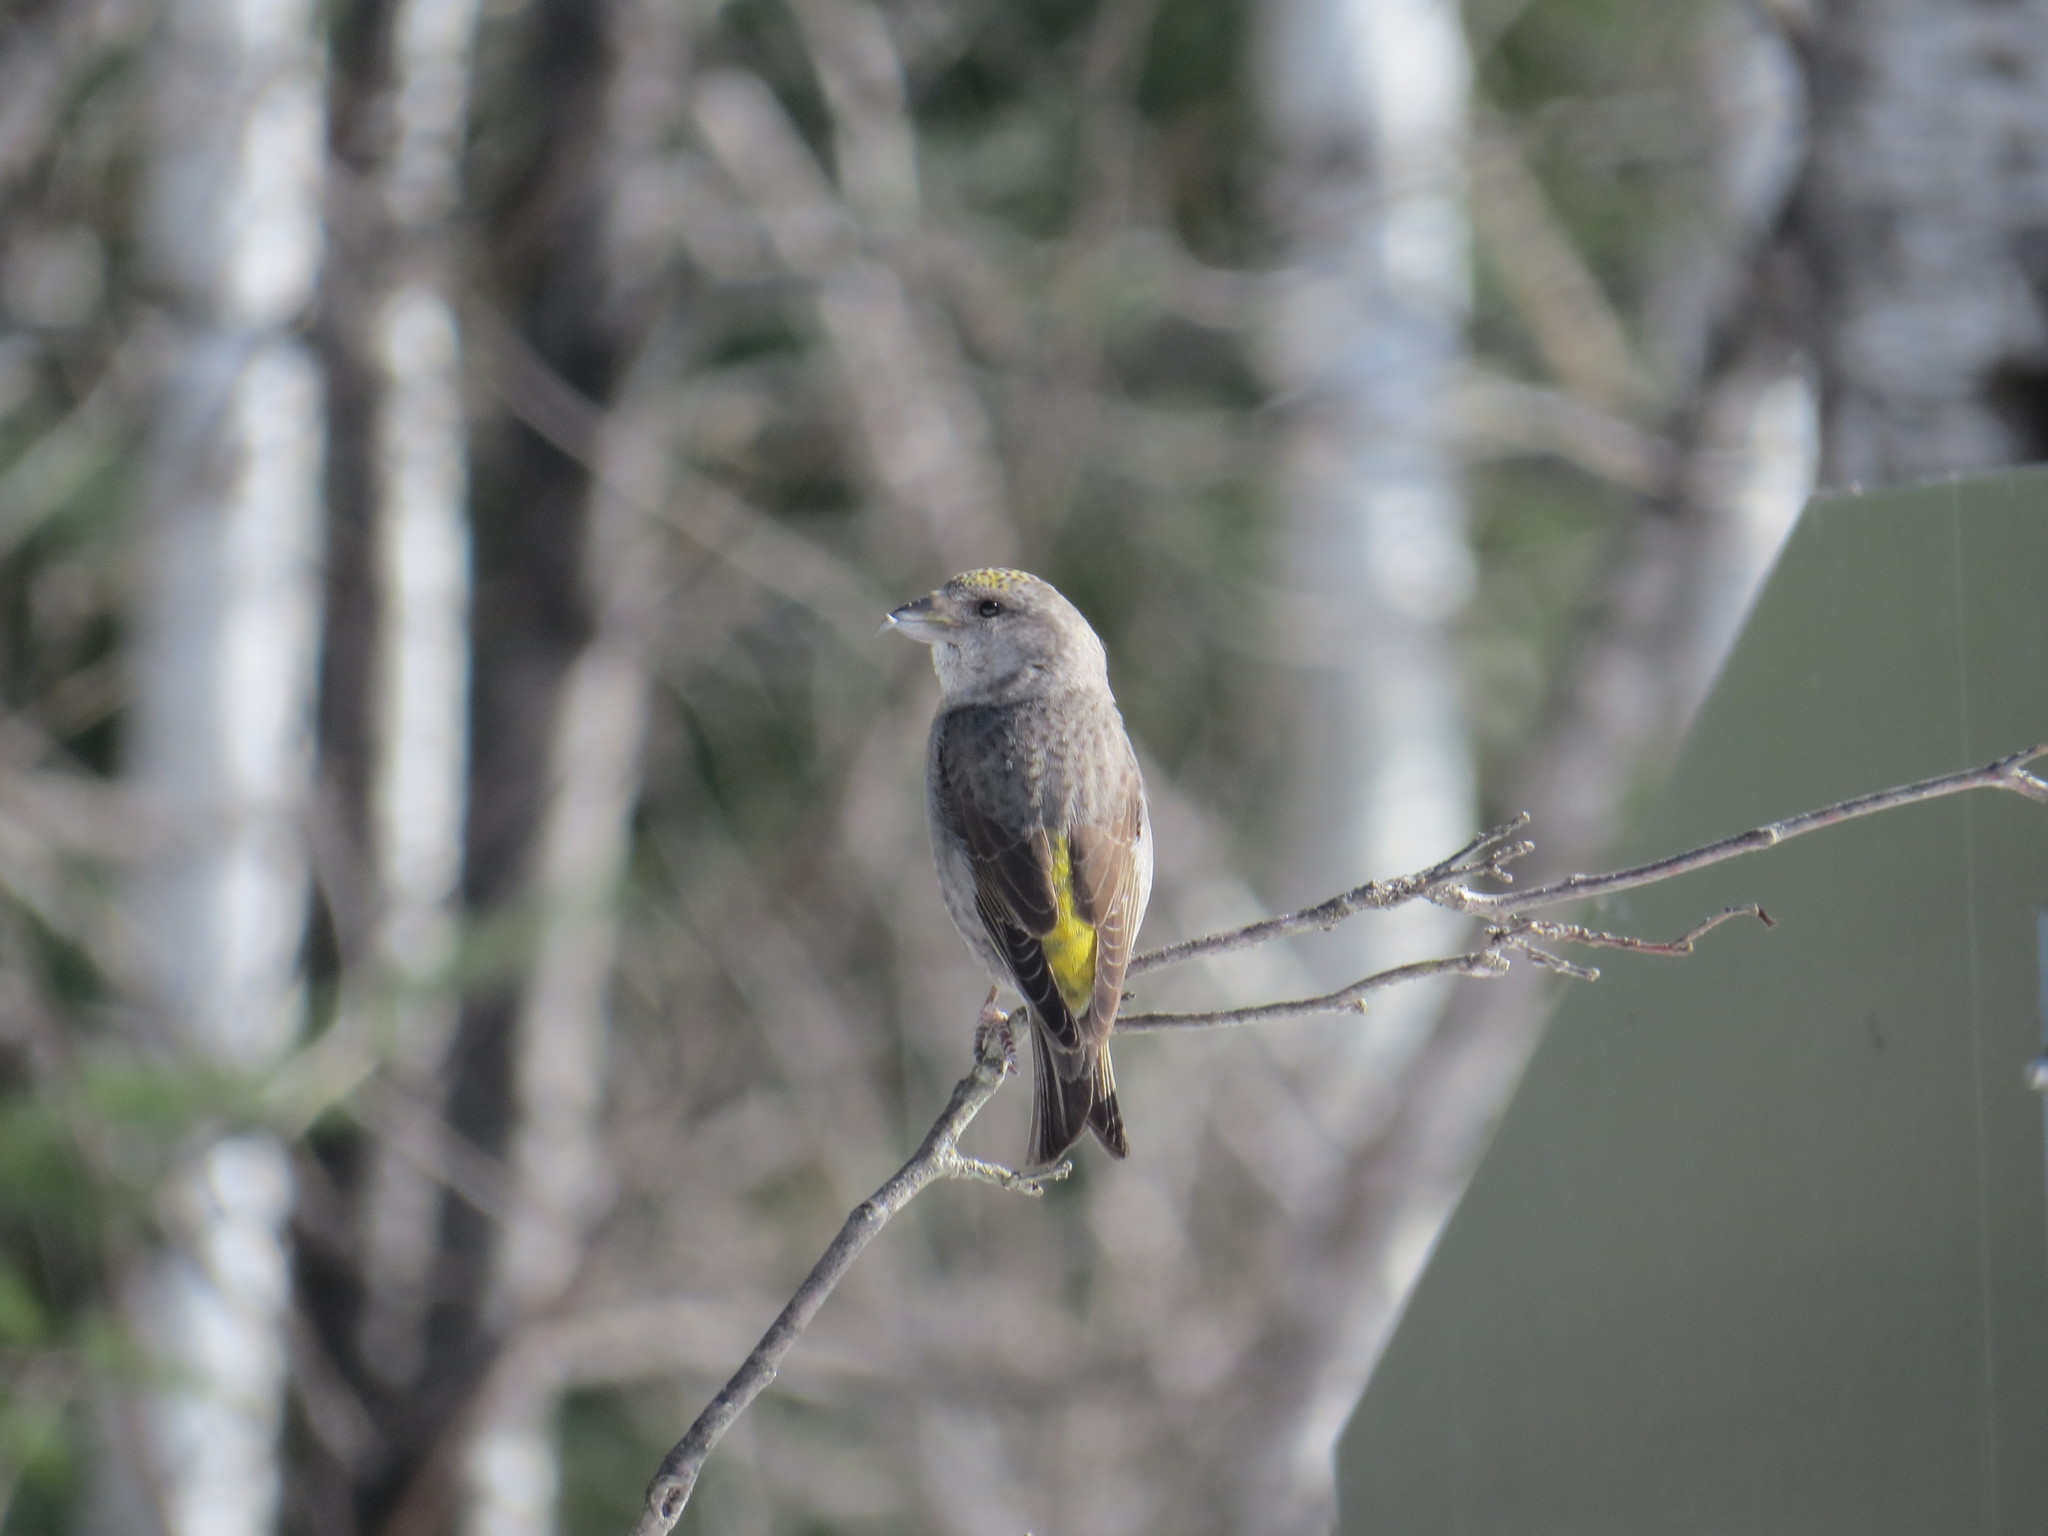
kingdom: Animalia
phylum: Chordata
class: Aves
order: Passeriformes
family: Fringillidae
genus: Loxia
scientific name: Loxia curvirostra
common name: Red crossbill
